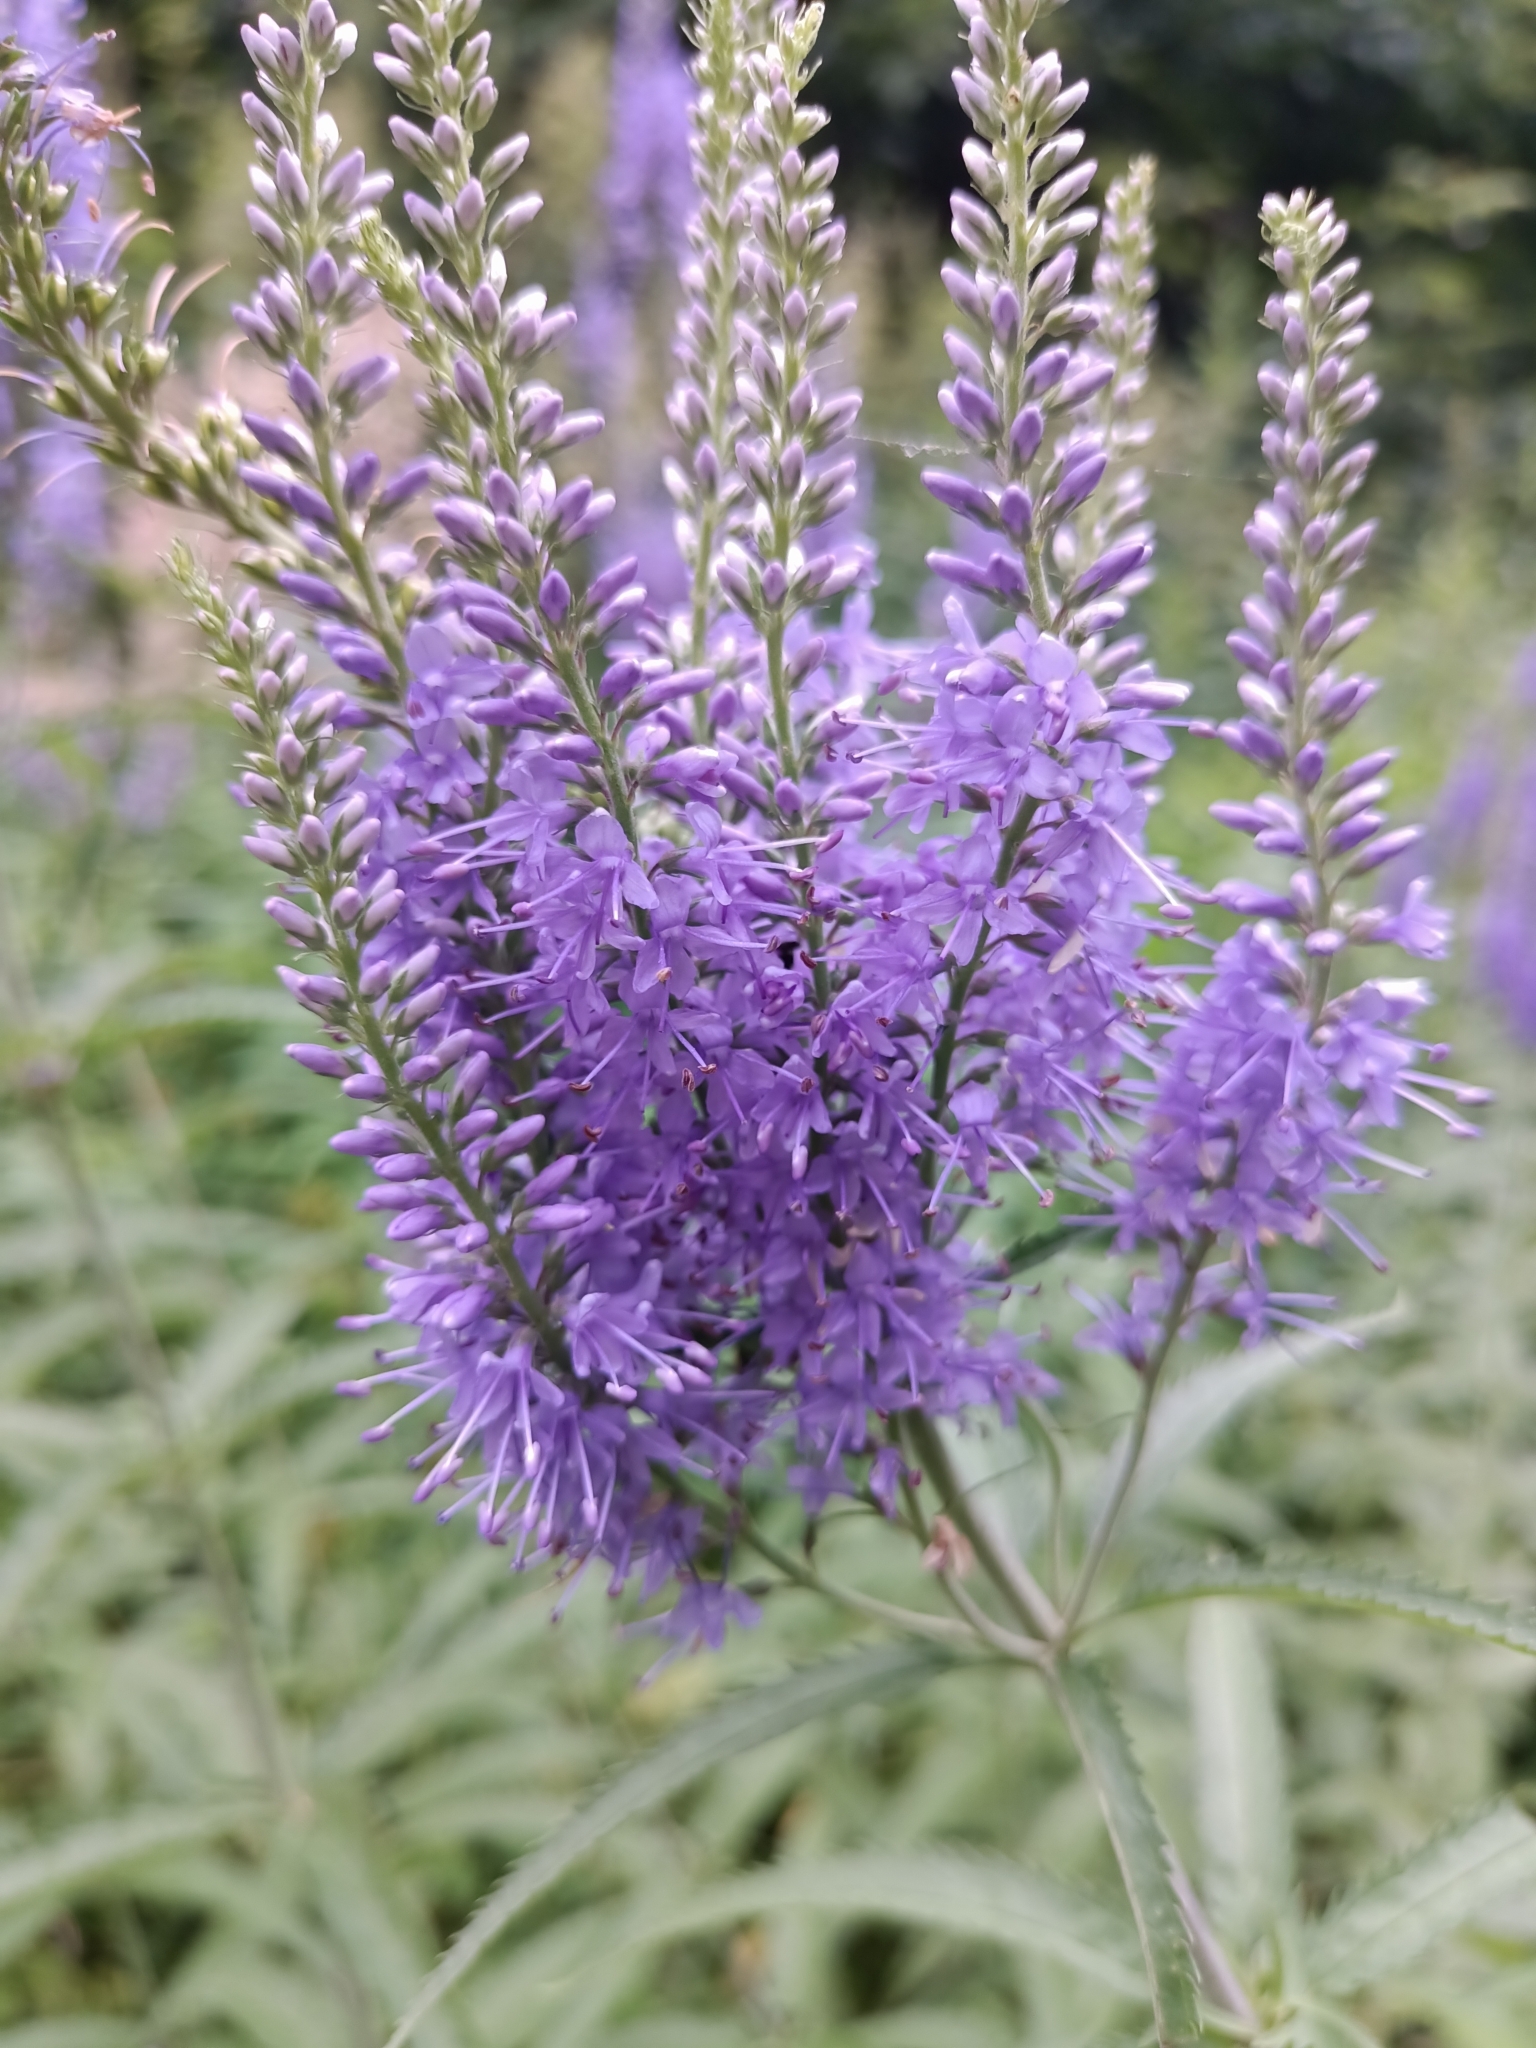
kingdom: Plantae
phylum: Tracheophyta
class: Magnoliopsida
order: Lamiales
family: Plantaginaceae
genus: Veronica
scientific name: Veronica longifolia
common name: Garden speedwell
